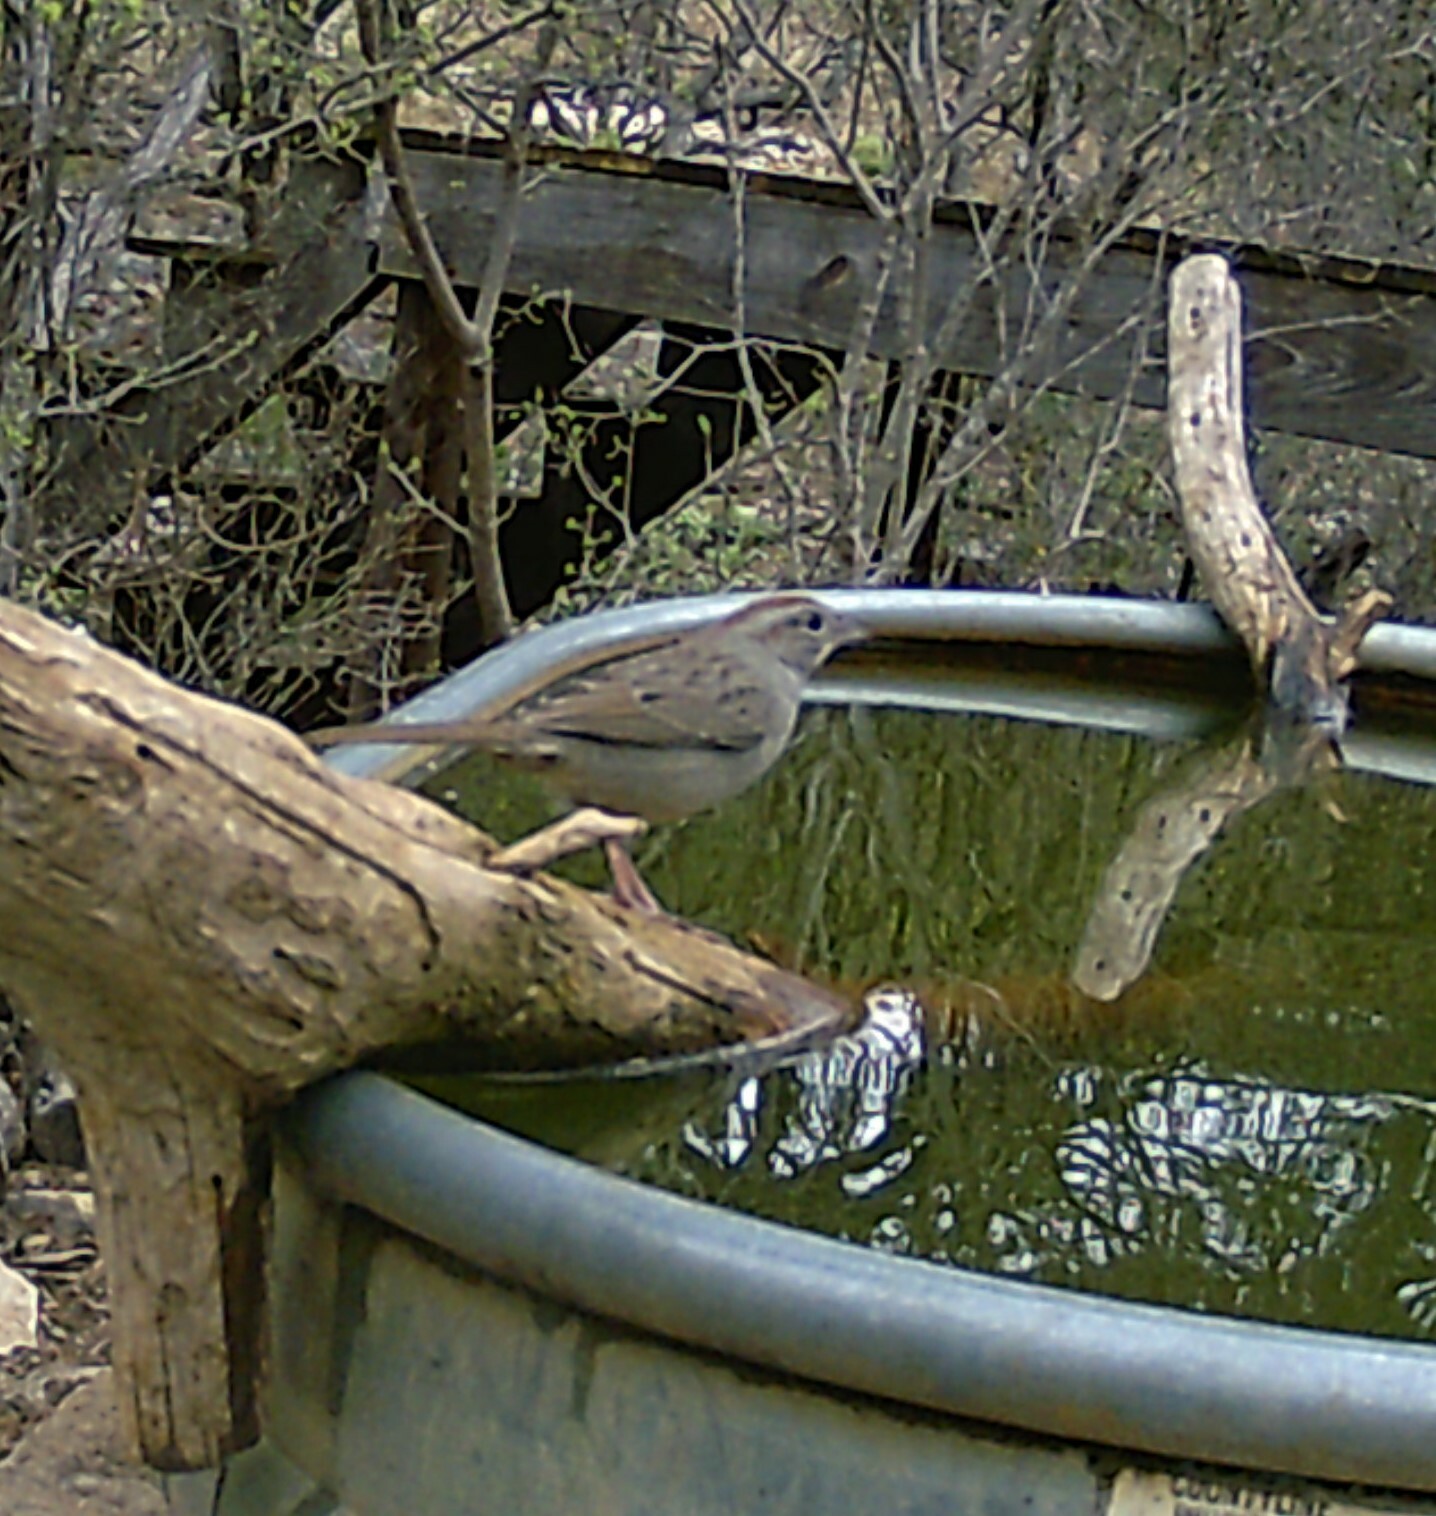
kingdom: Animalia
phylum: Chordata
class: Aves
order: Passeriformes
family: Passerellidae
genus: Aimophila
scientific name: Aimophila ruficeps
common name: Rufous-crowned sparrow
